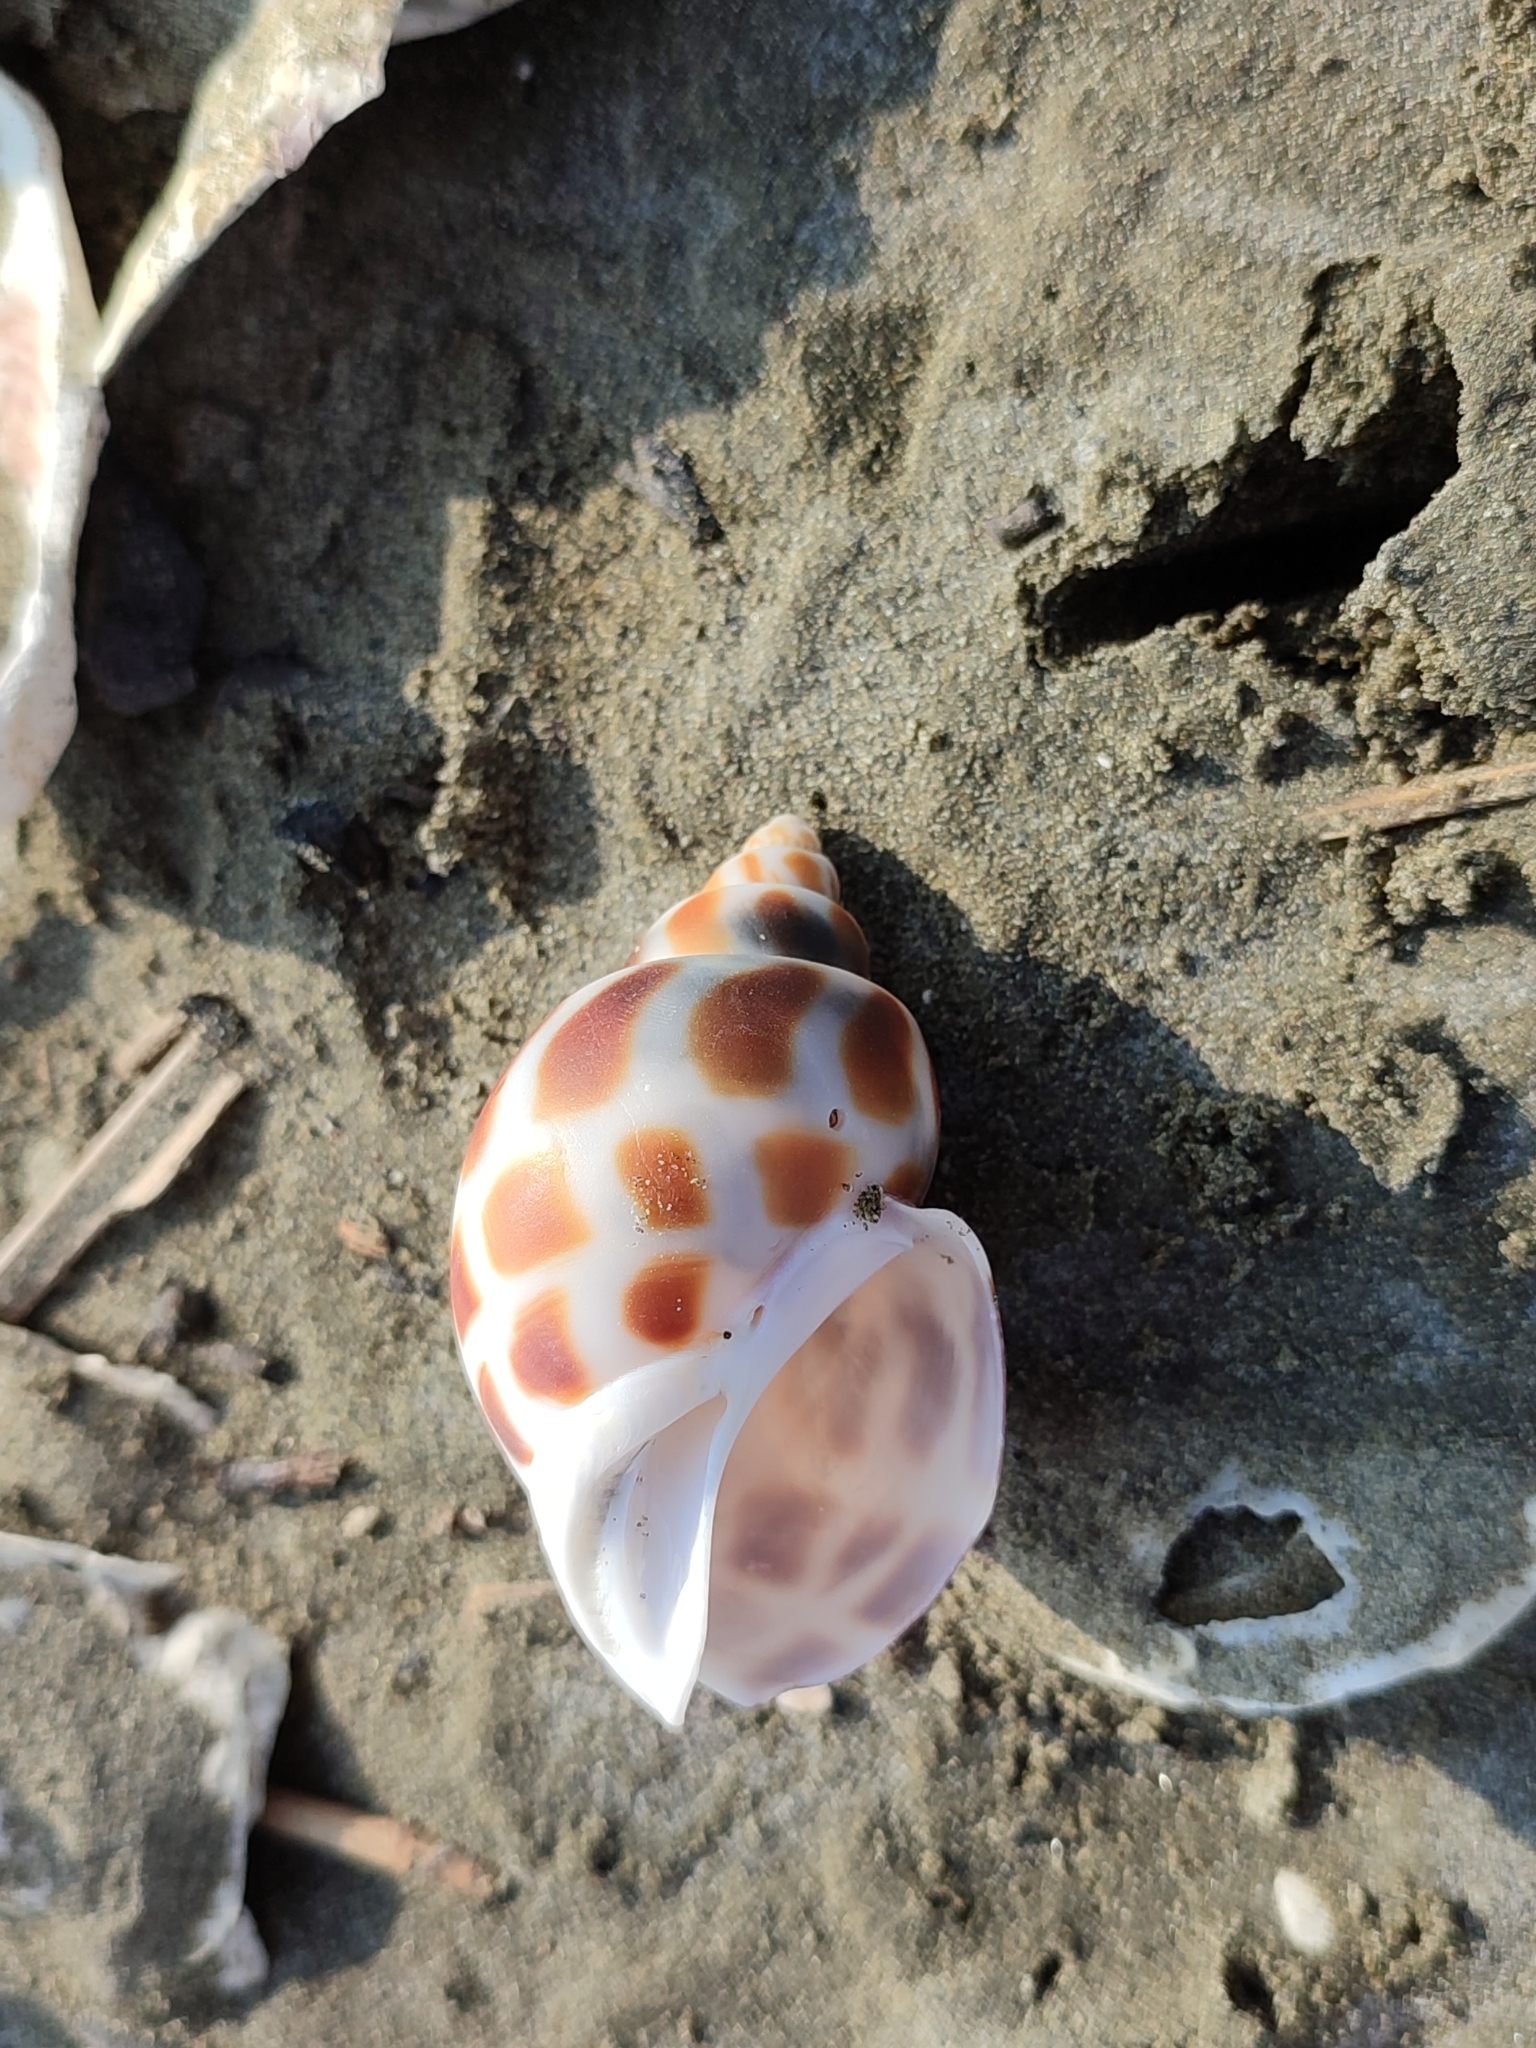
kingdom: Animalia
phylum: Mollusca
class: Gastropoda
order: Neogastropoda
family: Babyloniidae
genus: Babylonia
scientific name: Babylonia areolata
